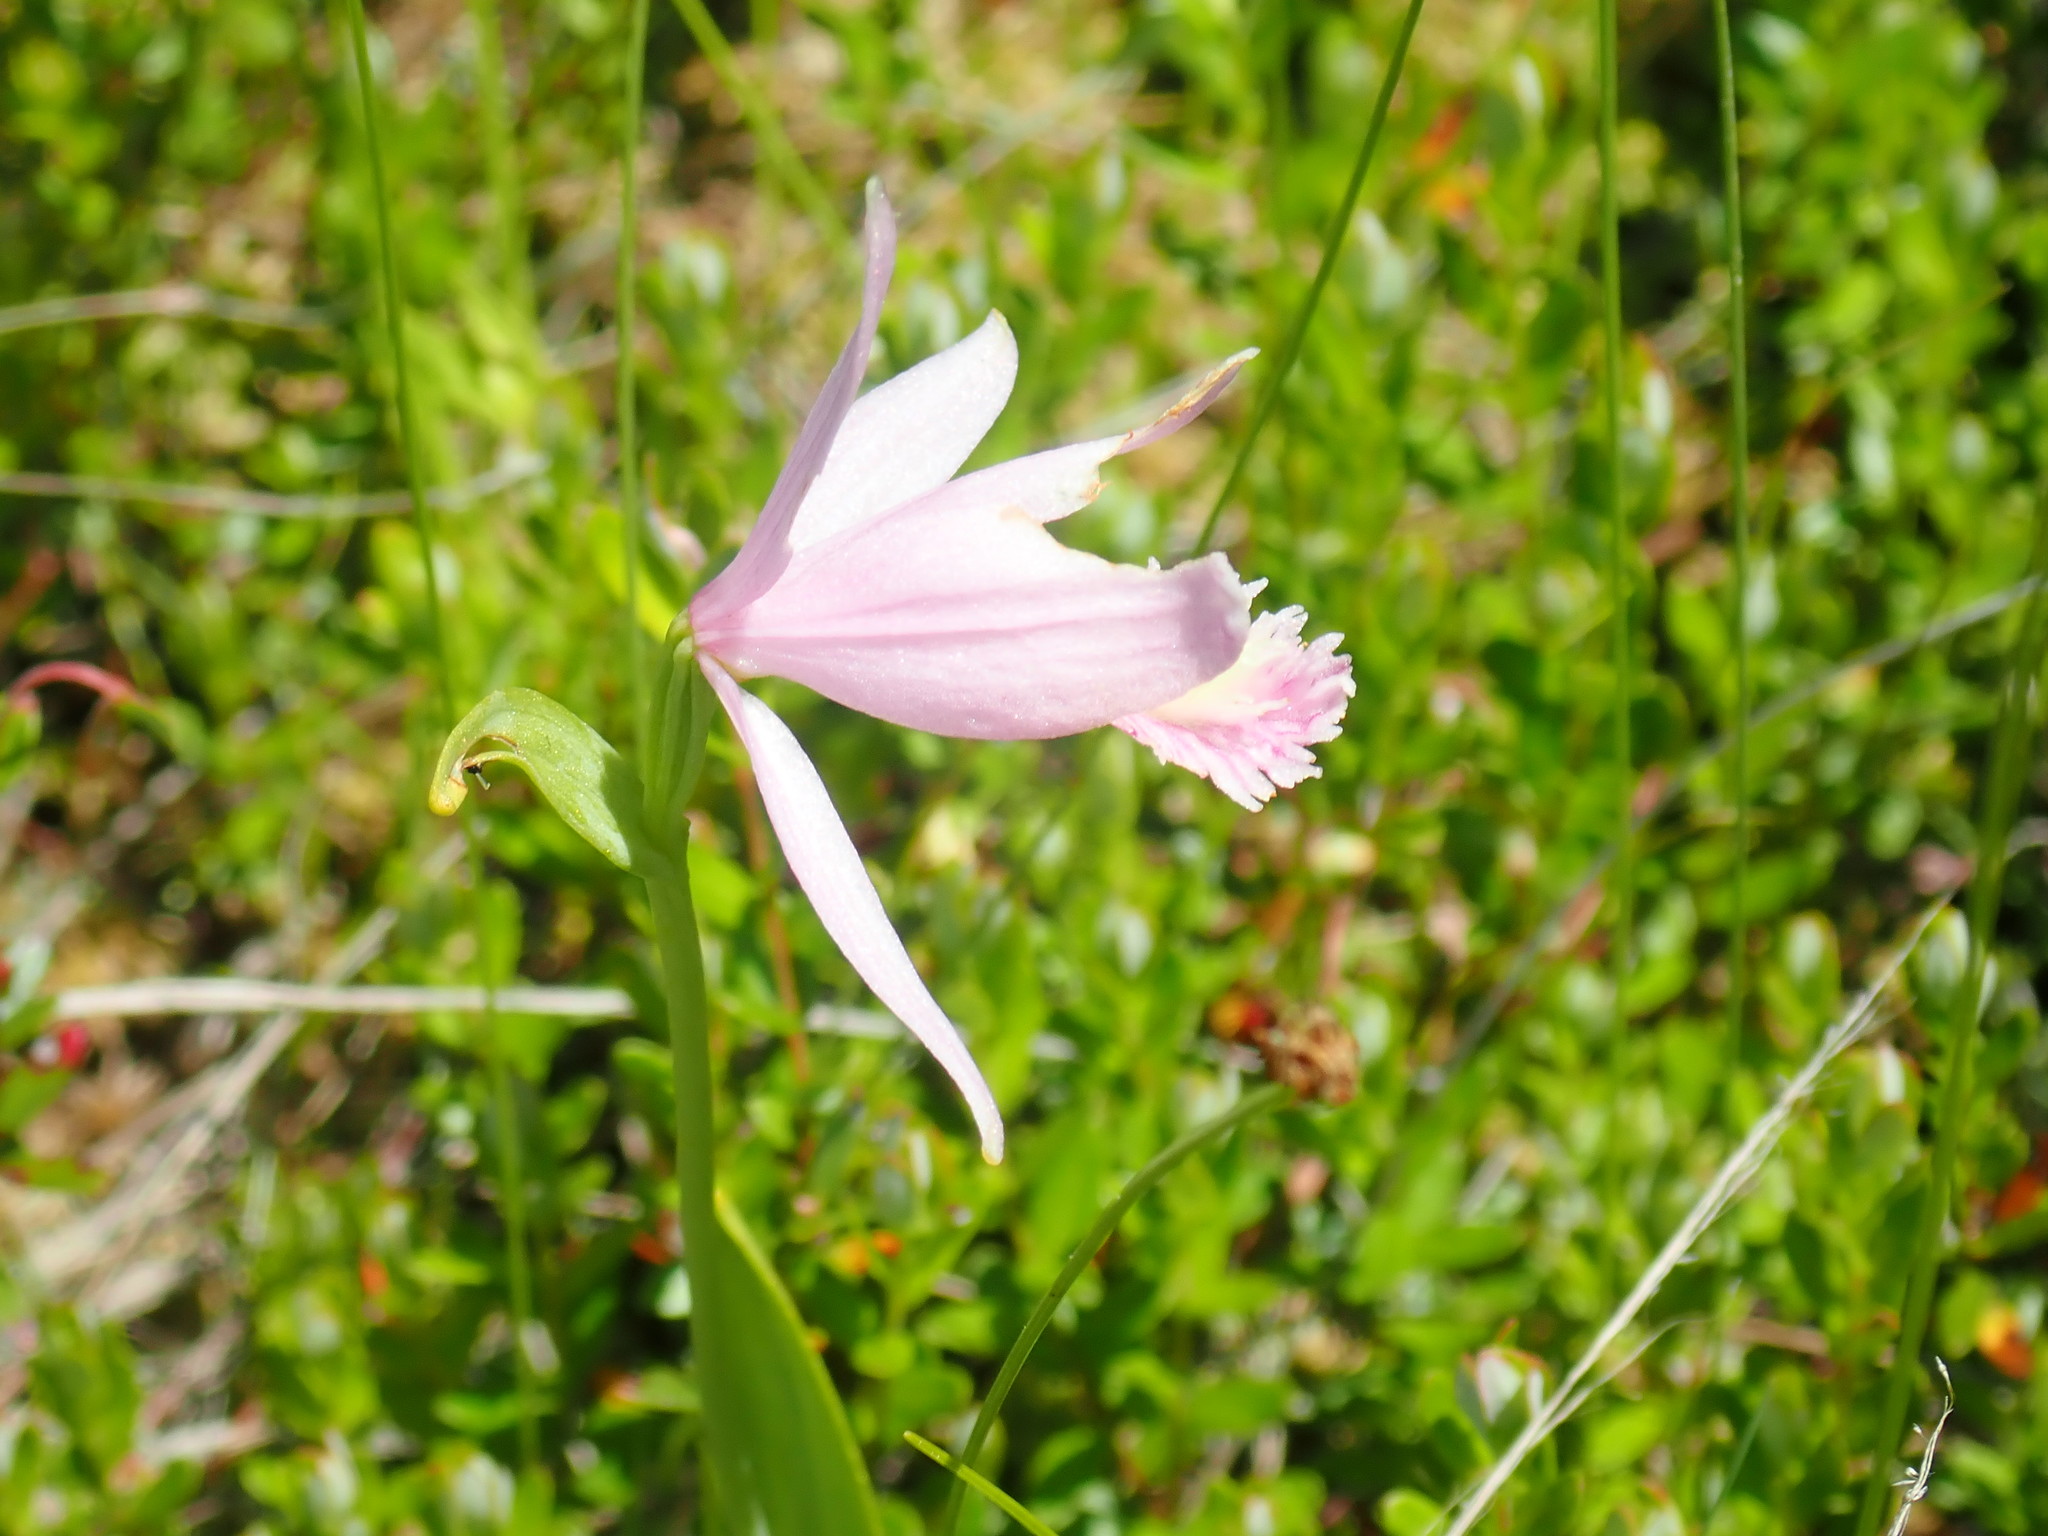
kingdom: Plantae
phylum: Tracheophyta
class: Liliopsida
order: Asparagales
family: Orchidaceae
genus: Pogonia
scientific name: Pogonia ophioglossoides
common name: Rose pogonia
